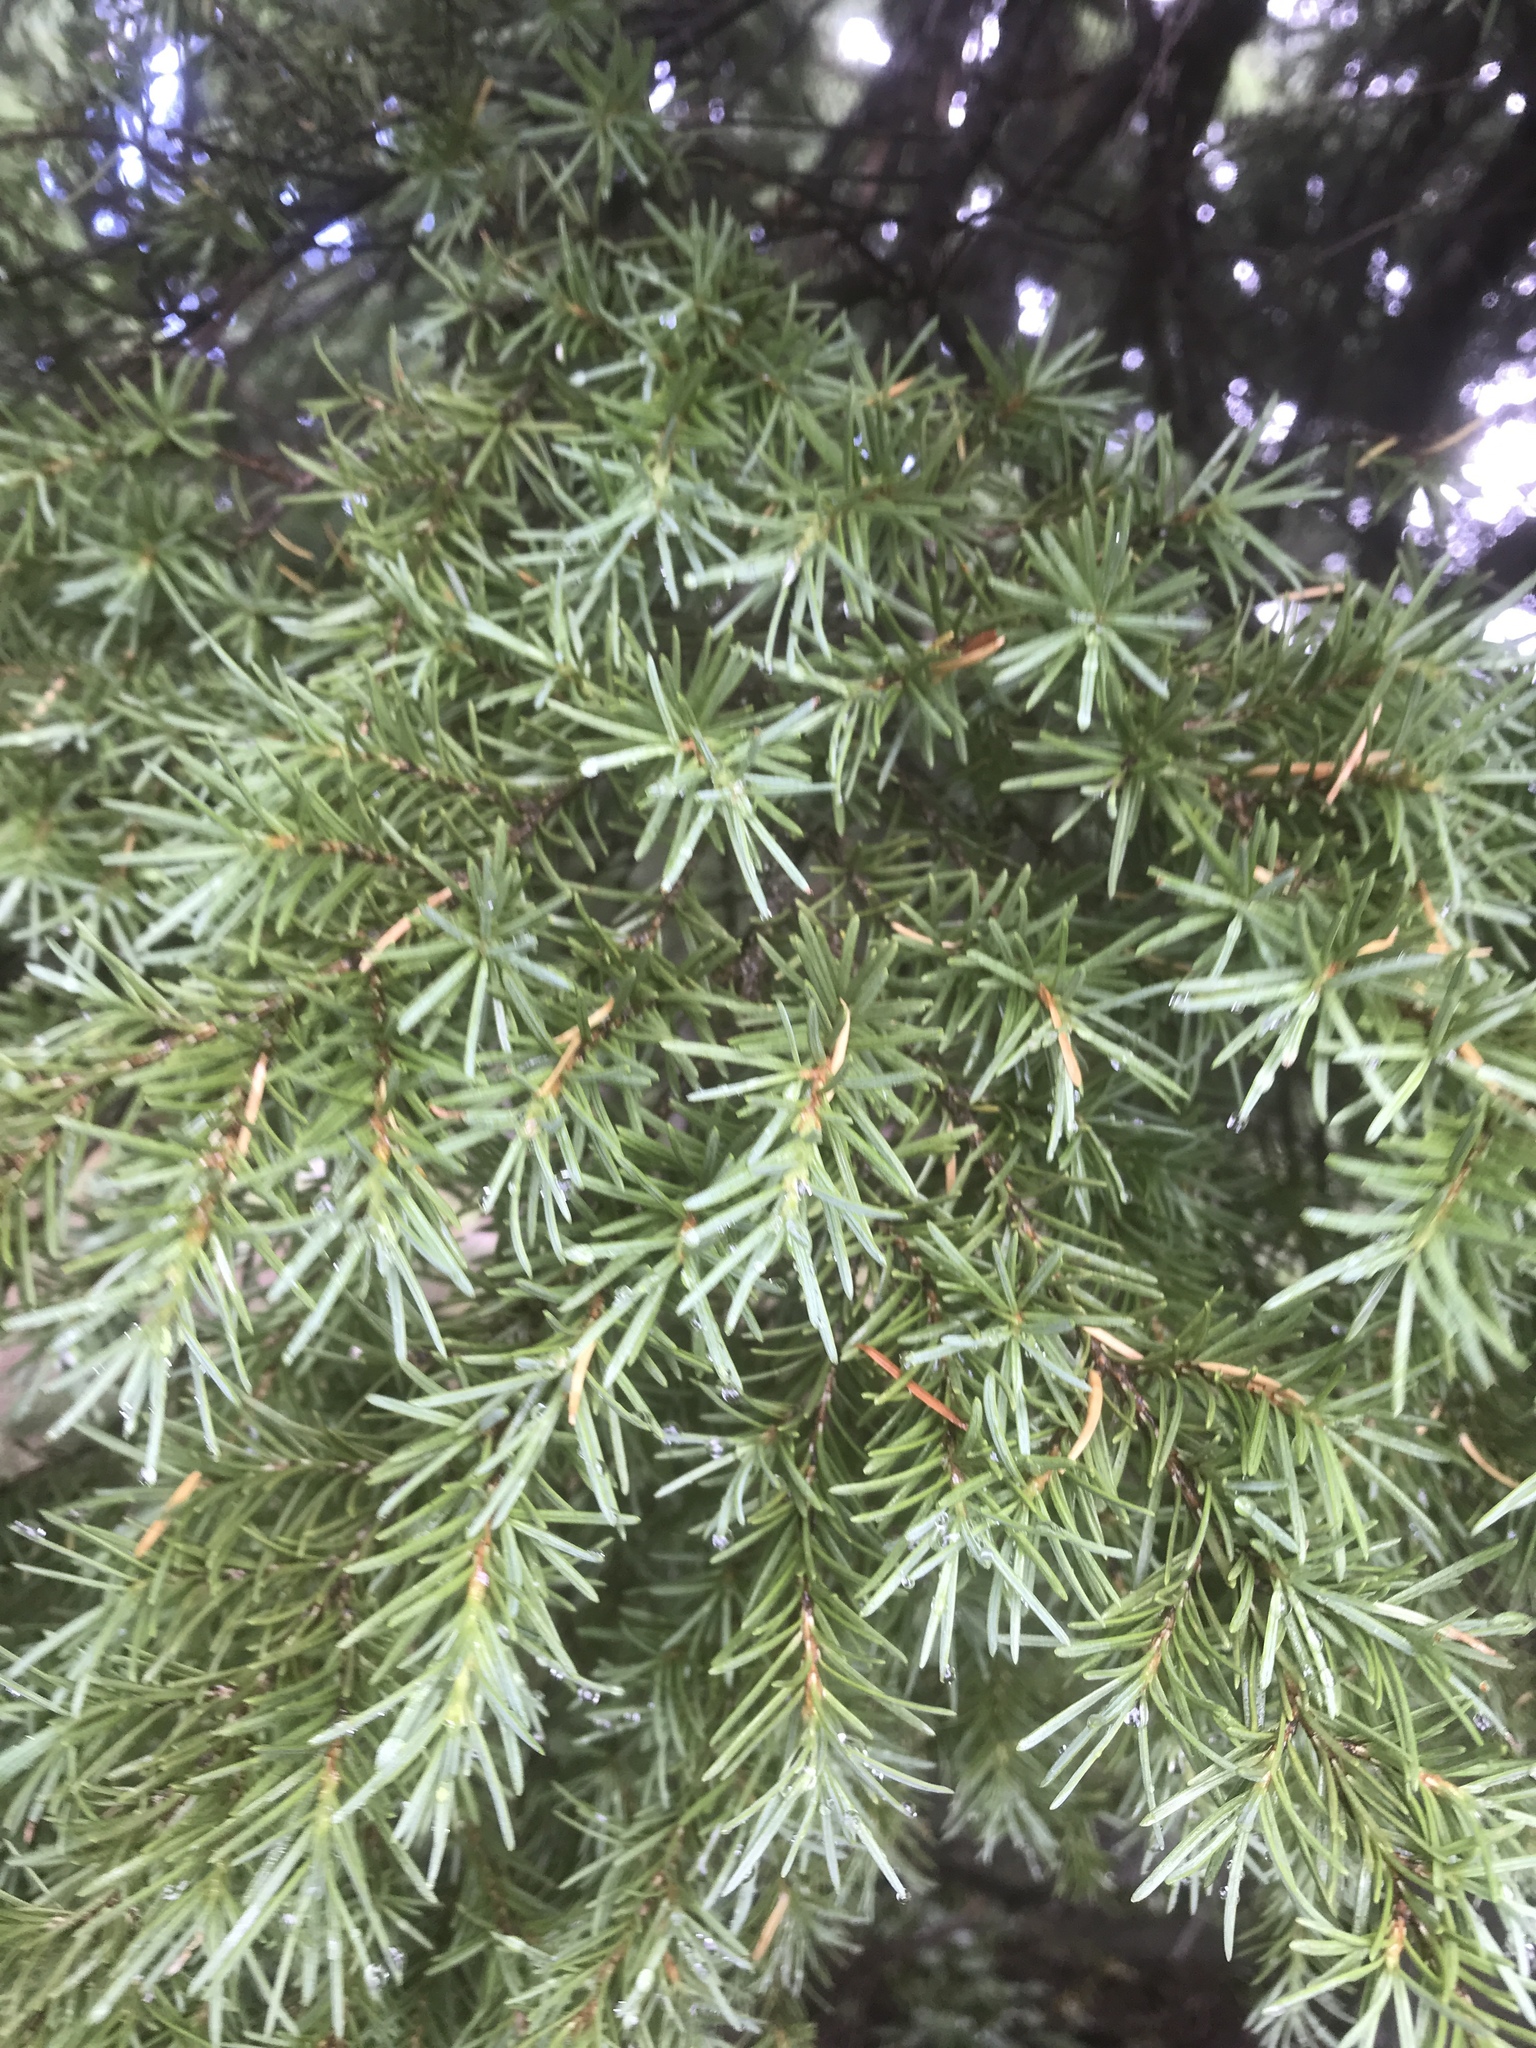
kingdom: Plantae
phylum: Tracheophyta
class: Pinopsida
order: Pinales
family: Pinaceae
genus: Tsuga
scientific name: Tsuga mertensiana
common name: Mountain hemlock
